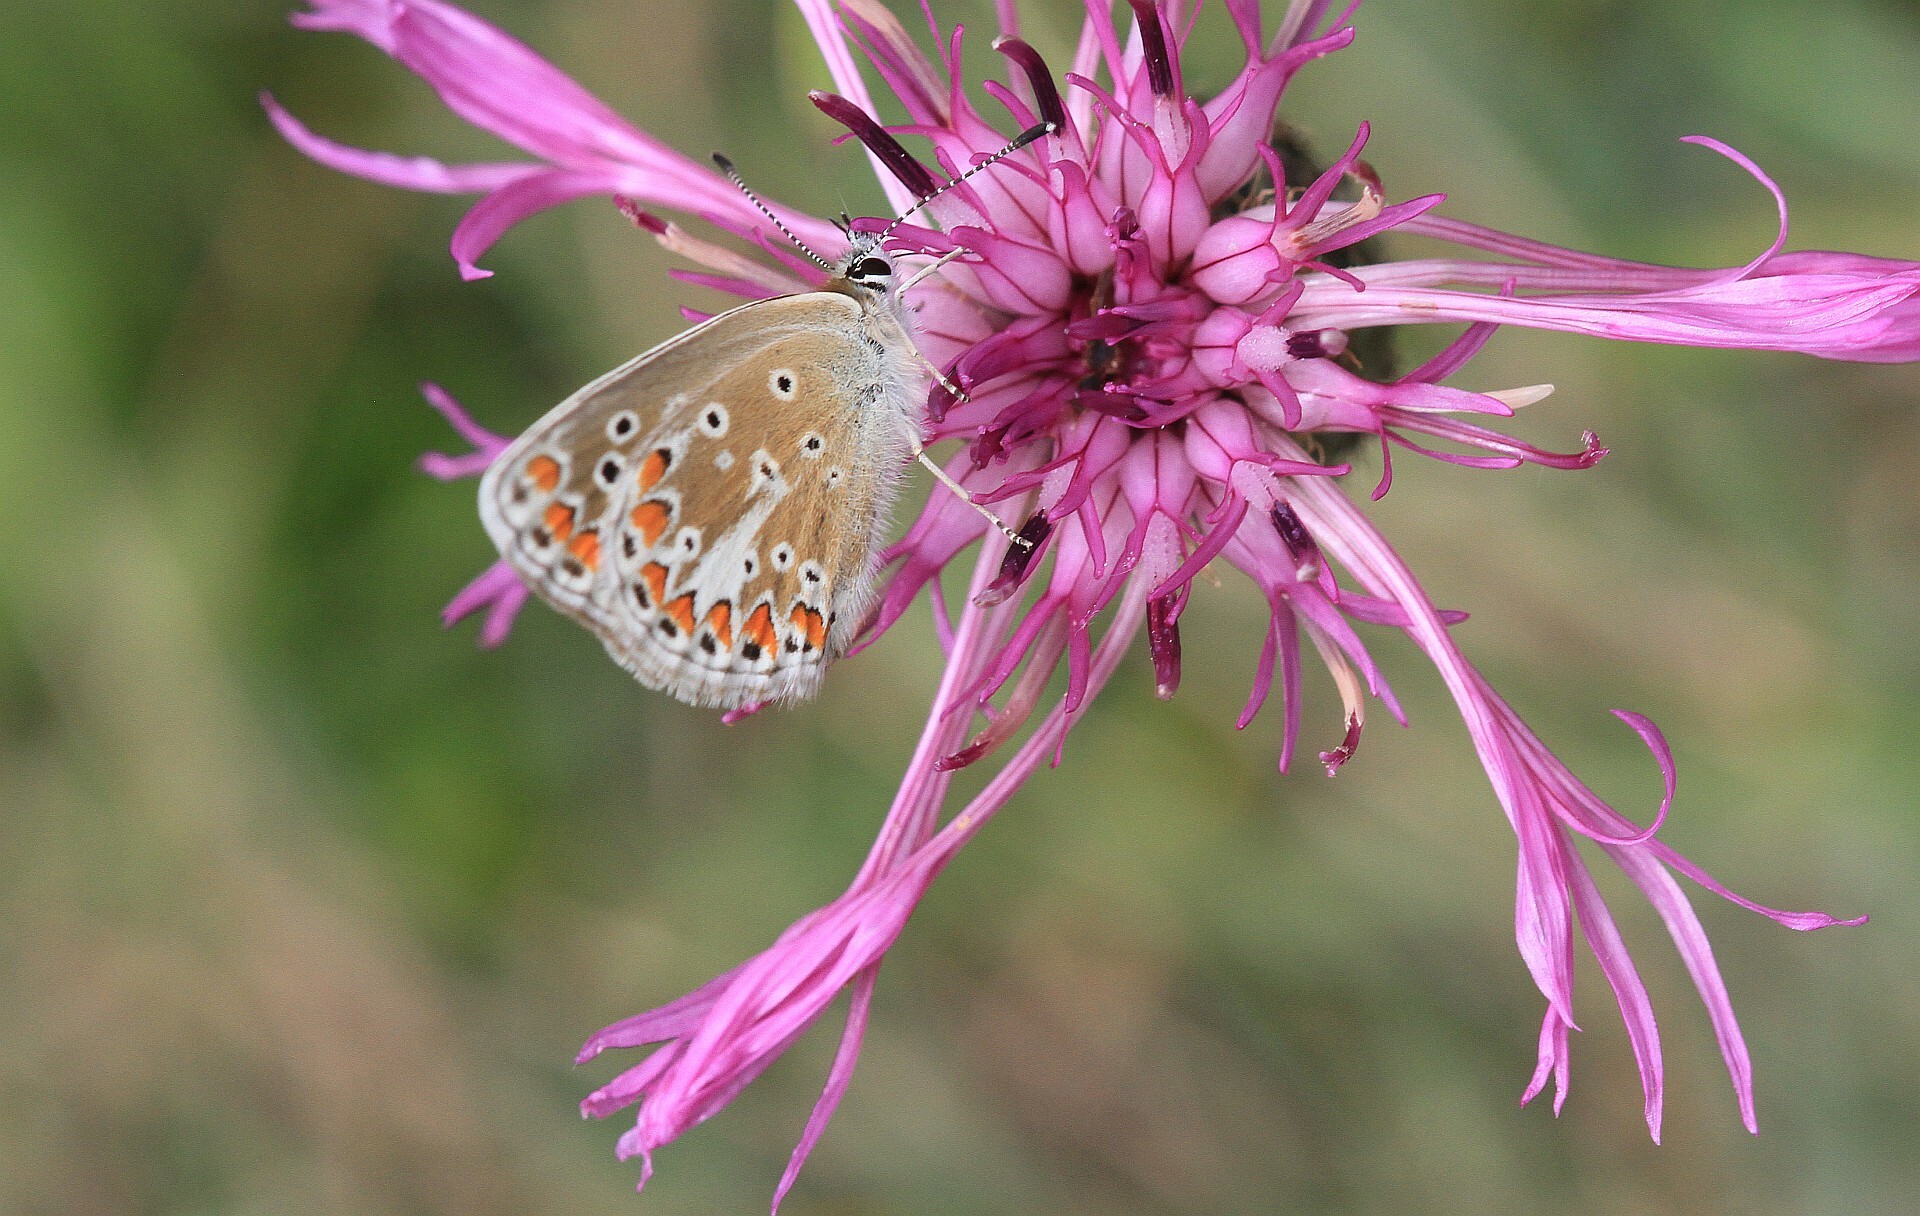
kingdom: Animalia
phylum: Arthropoda
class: Insecta
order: Lepidoptera
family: Lycaenidae
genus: Aricia
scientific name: Aricia agestis
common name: Brown argus
